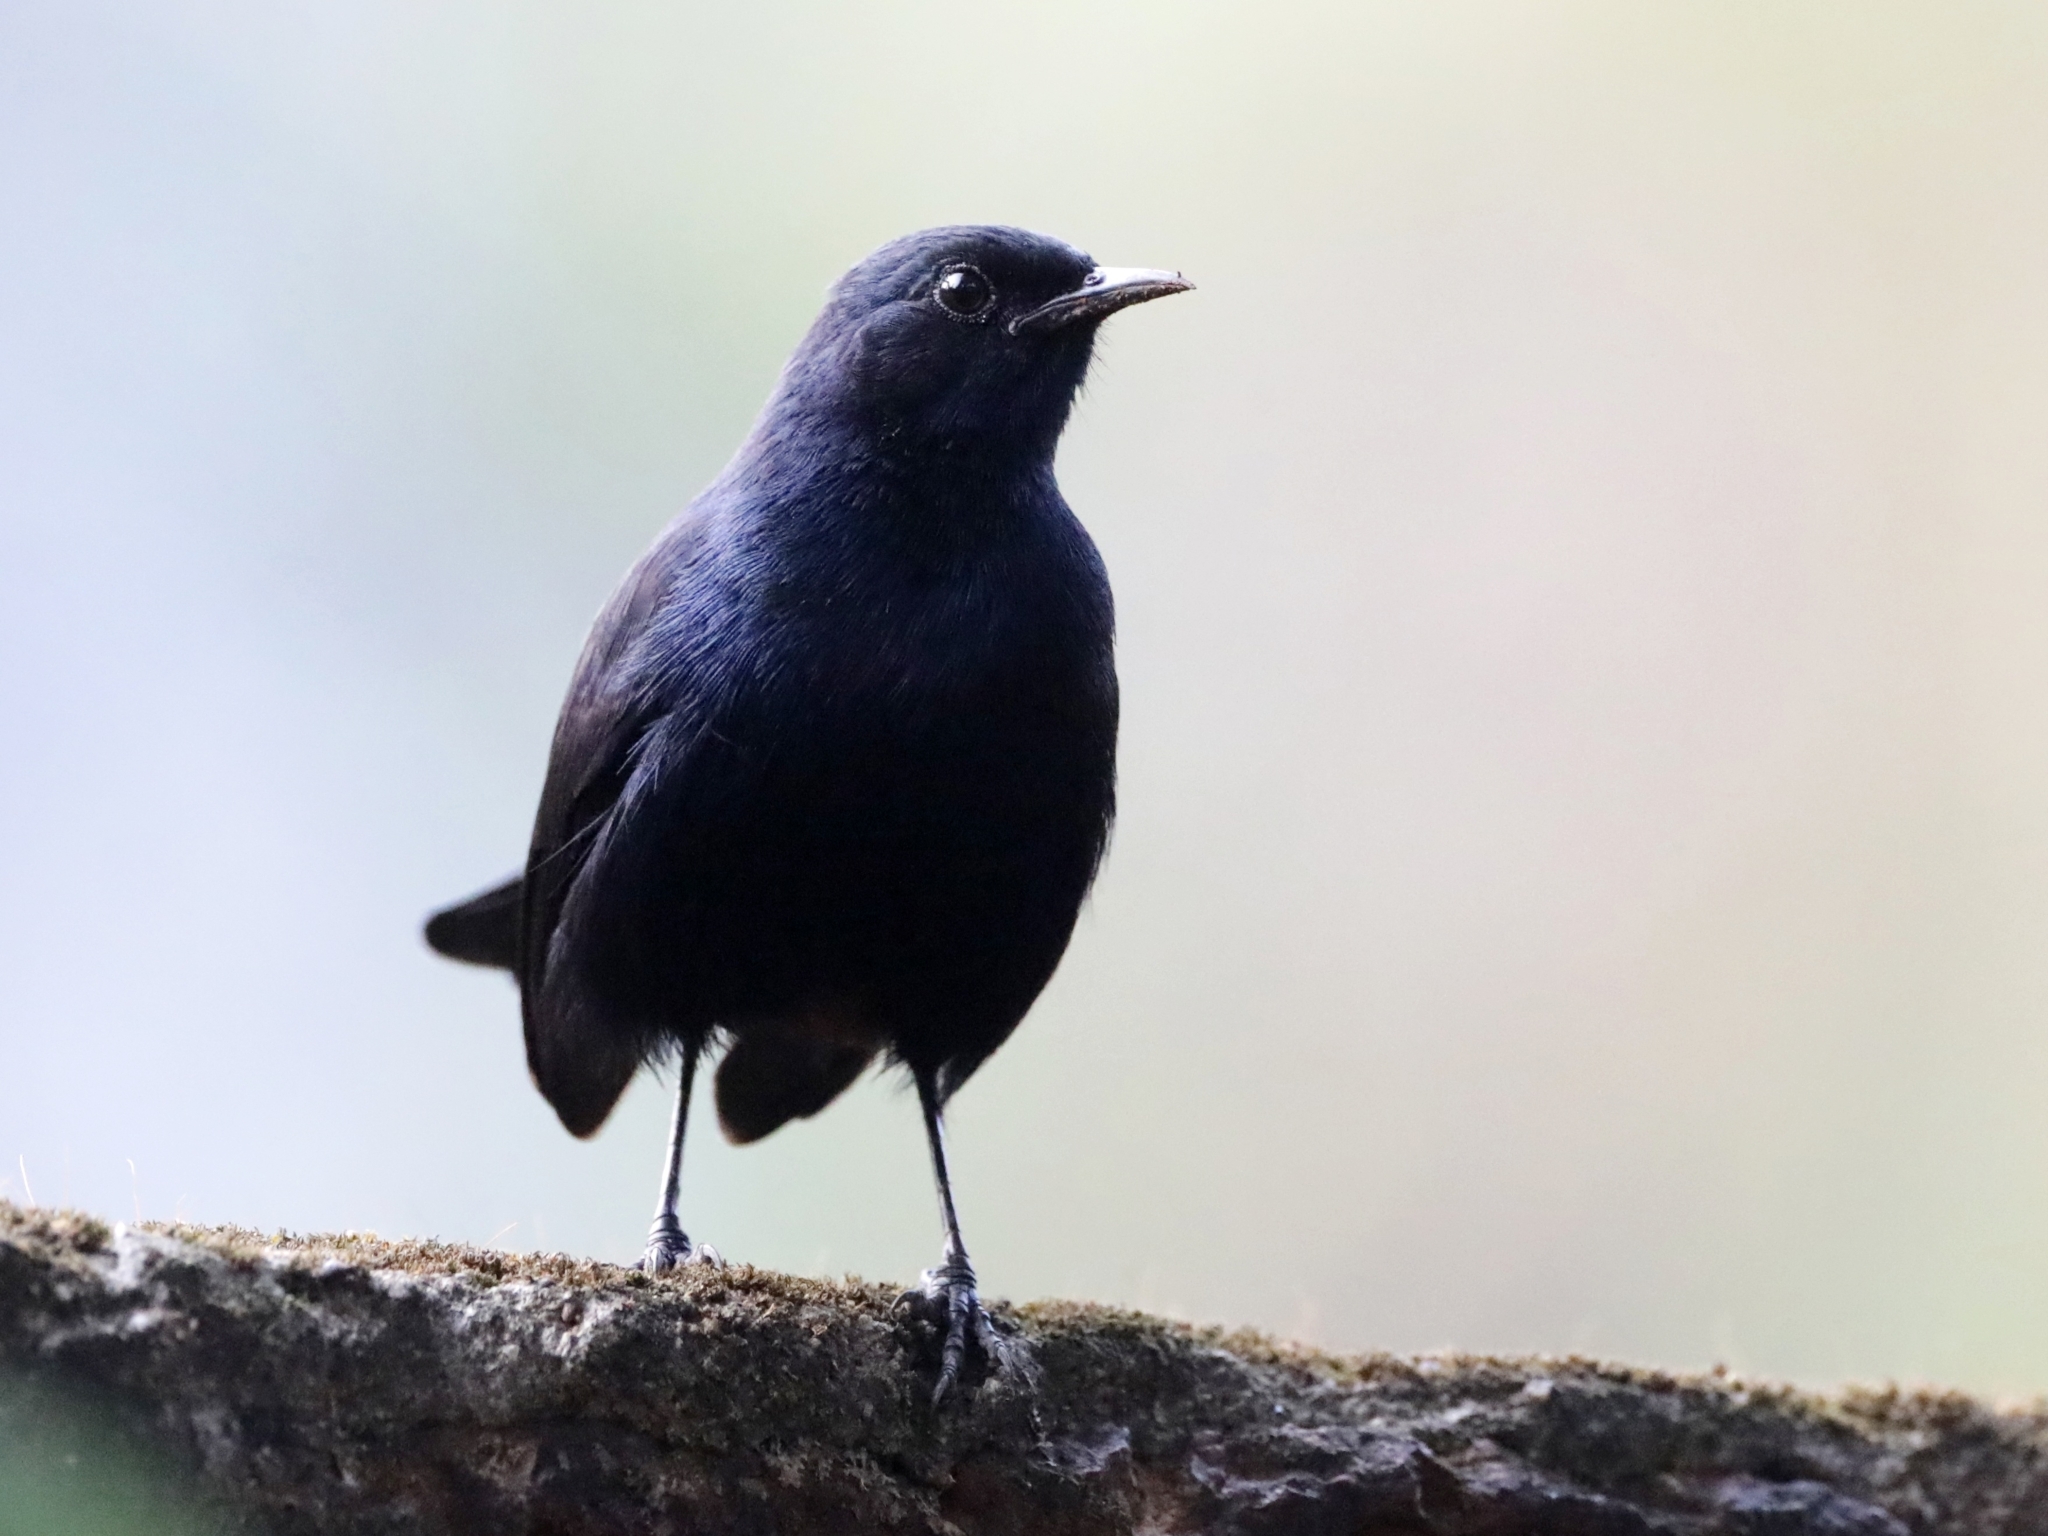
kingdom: Animalia
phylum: Chordata
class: Aves
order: Passeriformes
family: Muscicapidae
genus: Saxicoloides
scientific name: Saxicoloides fulicatus
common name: Indian robin
